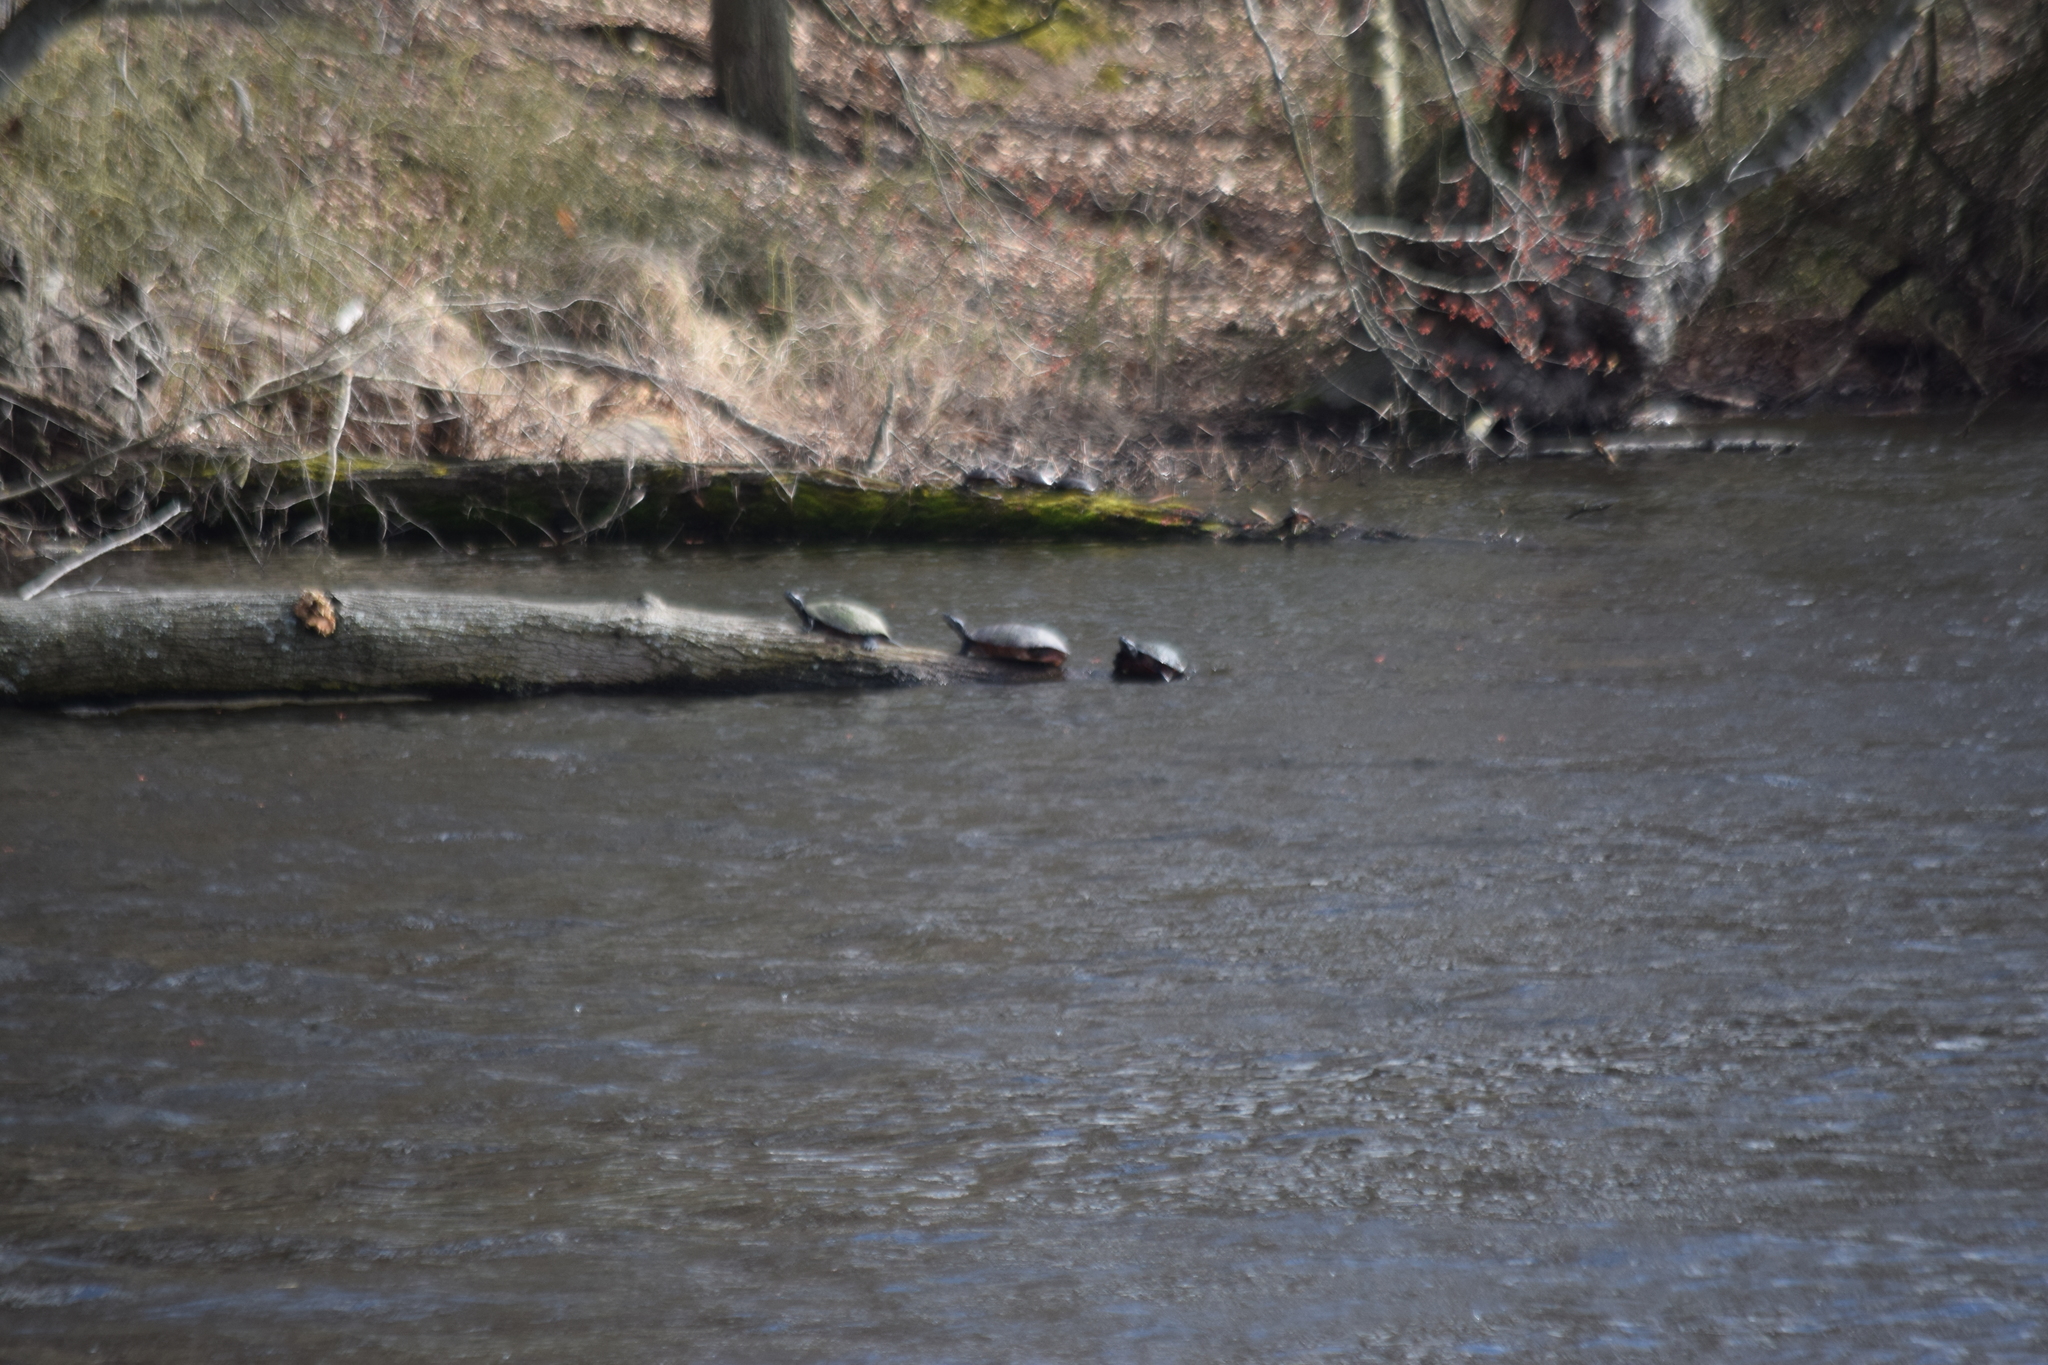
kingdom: Animalia
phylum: Chordata
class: Testudines
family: Emydidae
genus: Pseudemys
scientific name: Pseudemys rubriventris
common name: American red-bellied turtle
